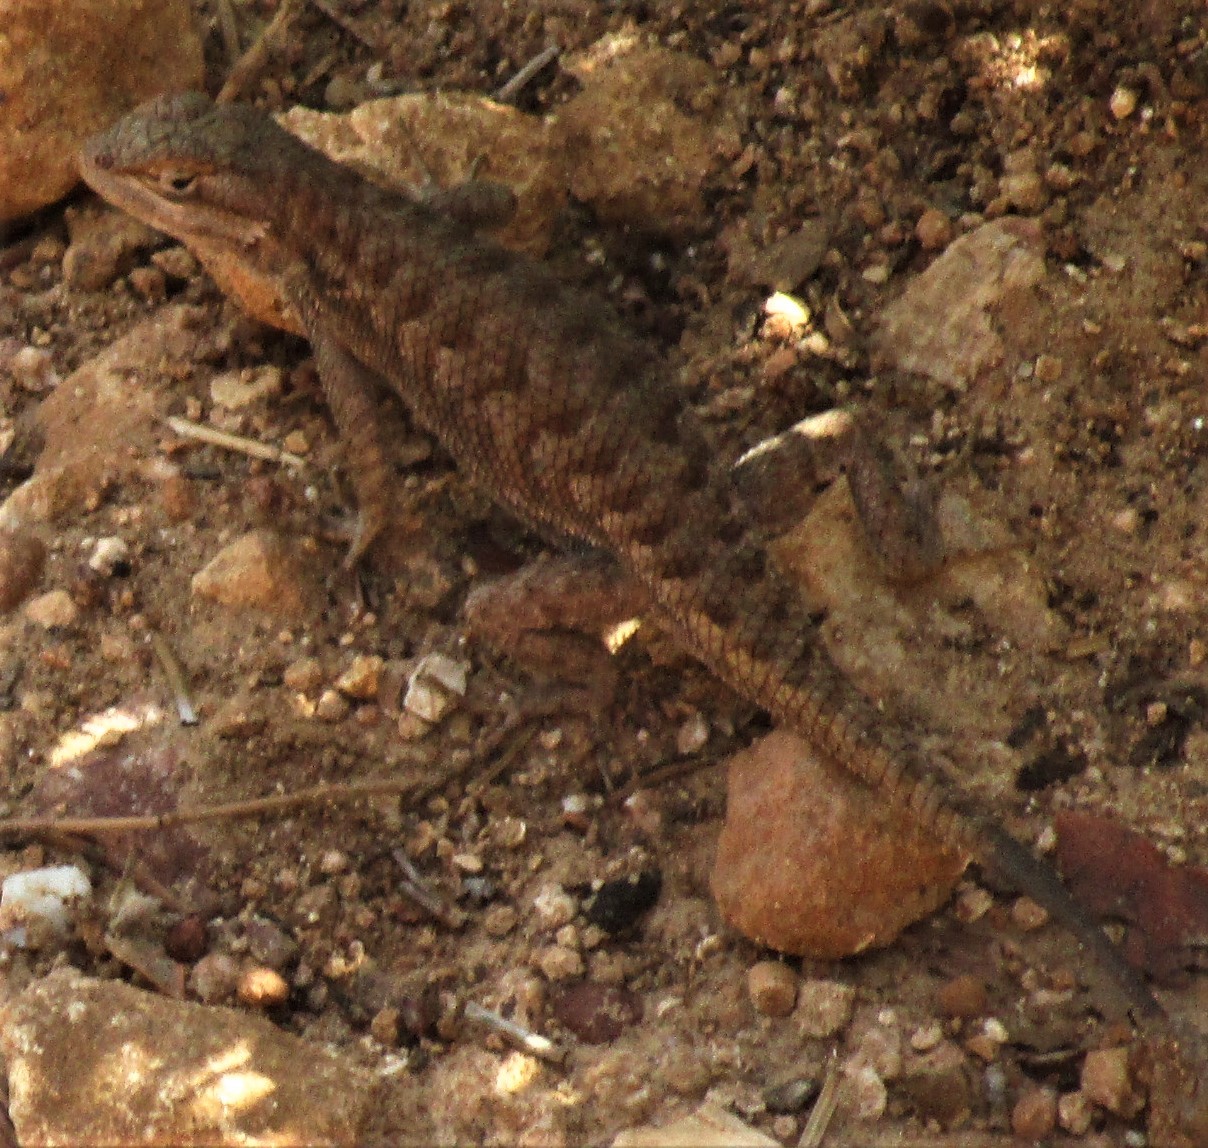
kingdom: Animalia
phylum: Chordata
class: Squamata
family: Phrynosomatidae
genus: Sceloporus
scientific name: Sceloporus tristichus
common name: Plateau fence lizard
